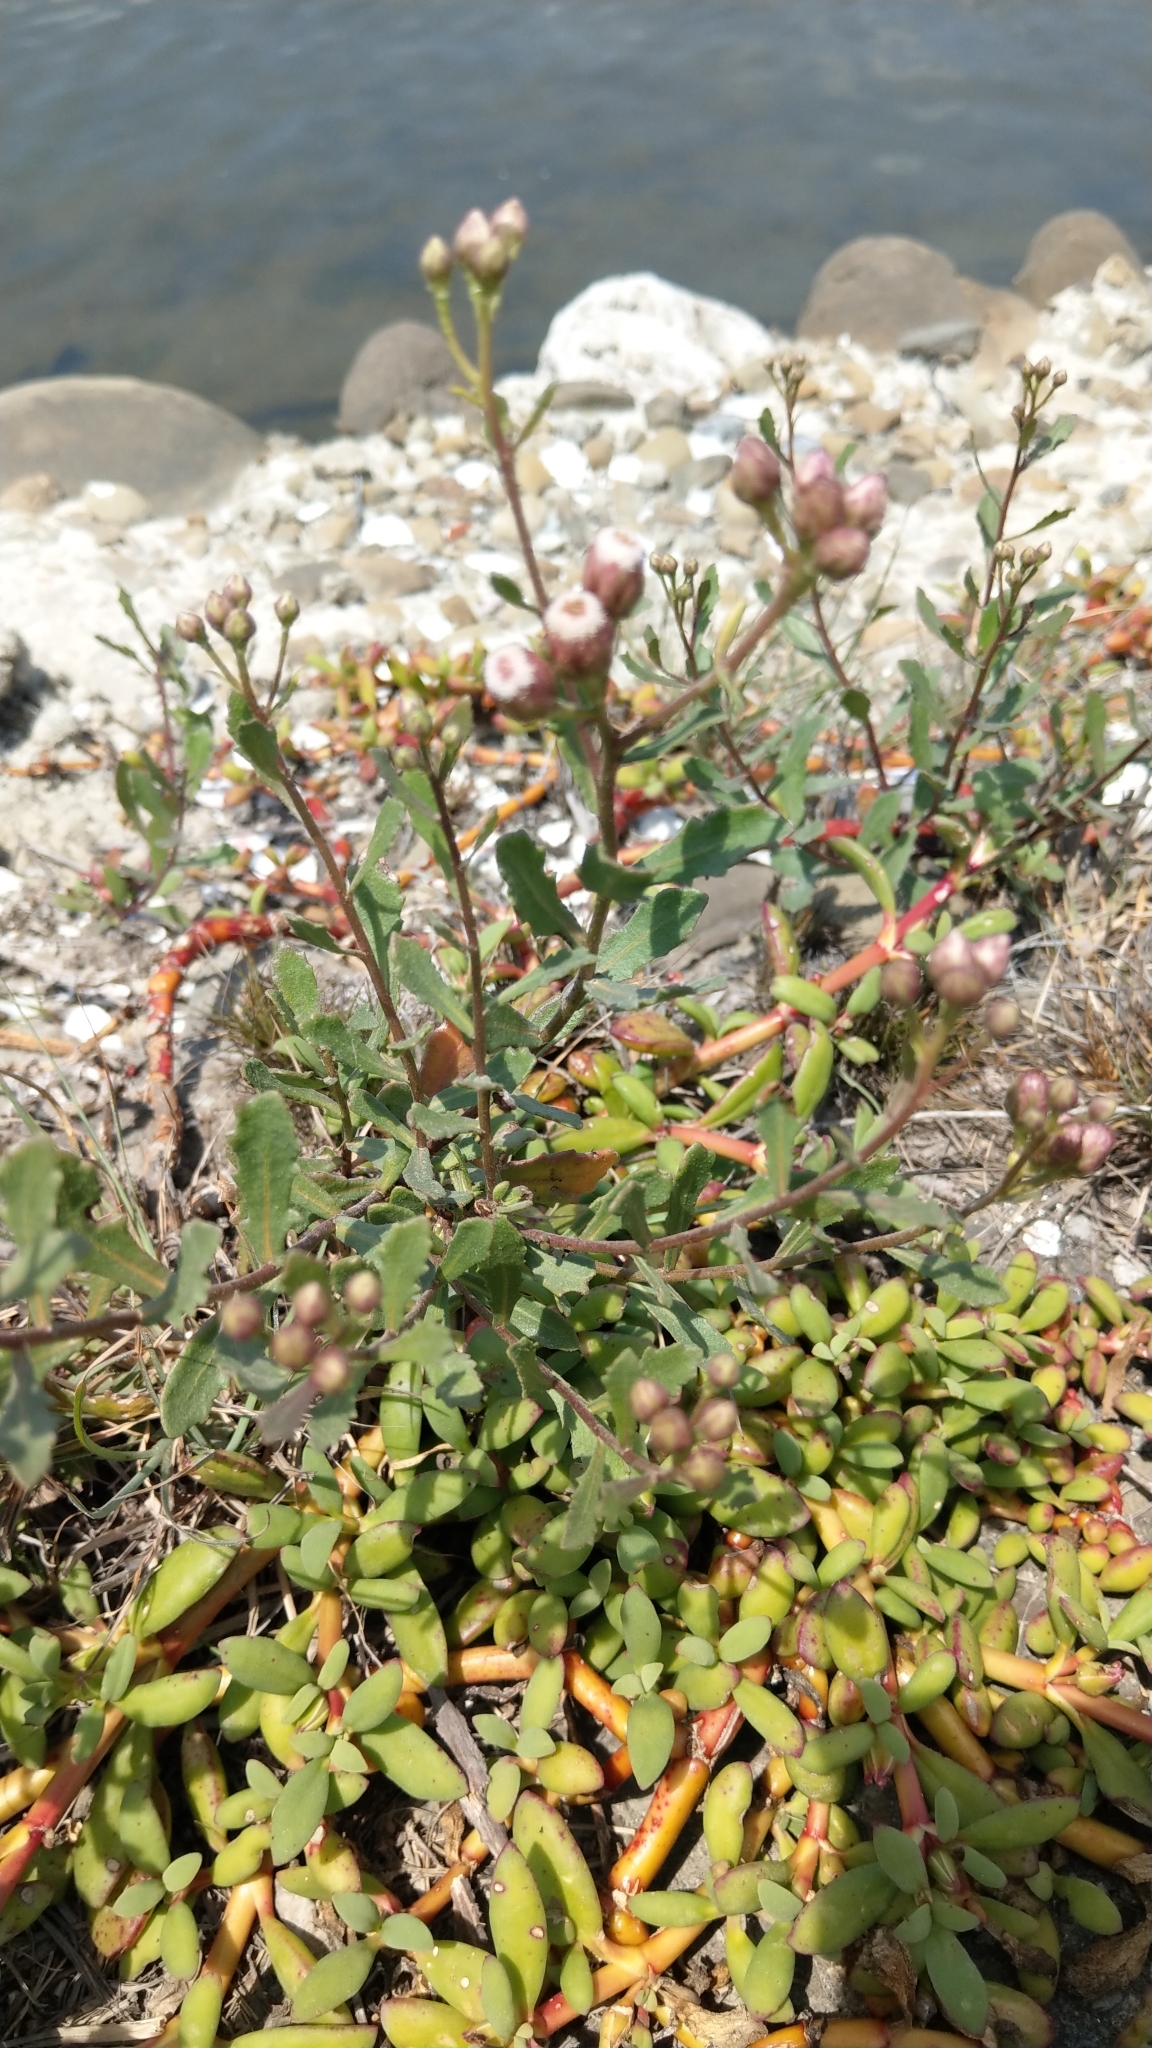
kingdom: Plantae
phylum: Tracheophyta
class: Magnoliopsida
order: Asterales
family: Asteraceae
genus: Pluchea
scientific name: Pluchea pteropoda
